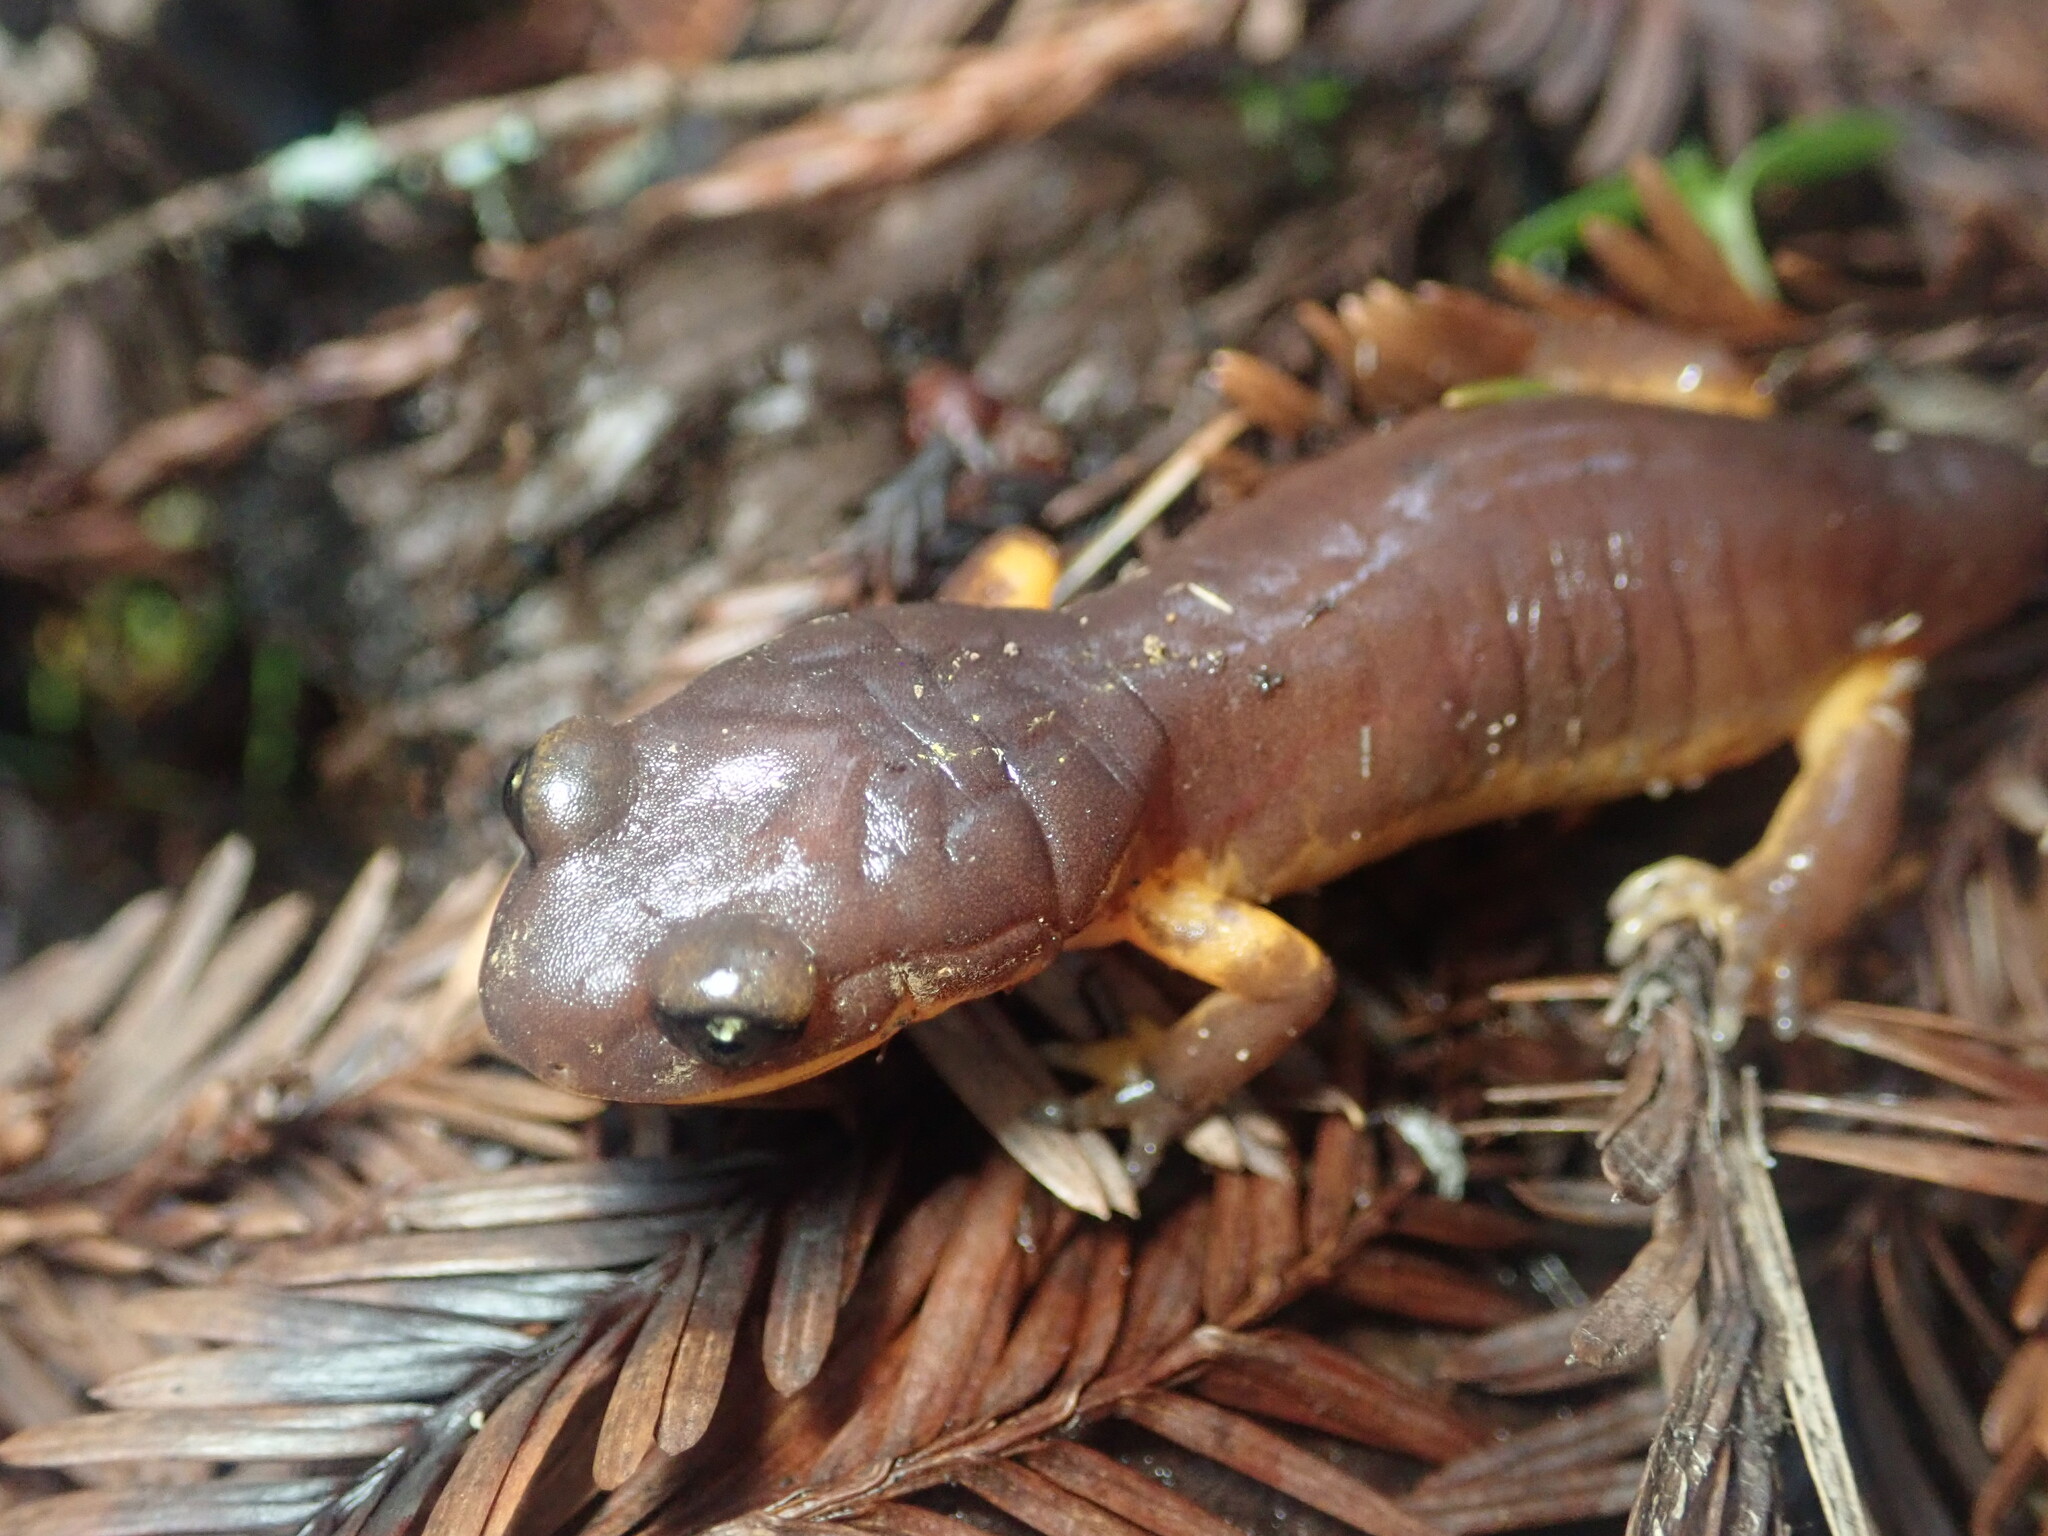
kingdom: Animalia
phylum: Chordata
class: Amphibia
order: Caudata
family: Plethodontidae
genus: Ensatina
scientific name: Ensatina eschscholtzii
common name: Ensatina
